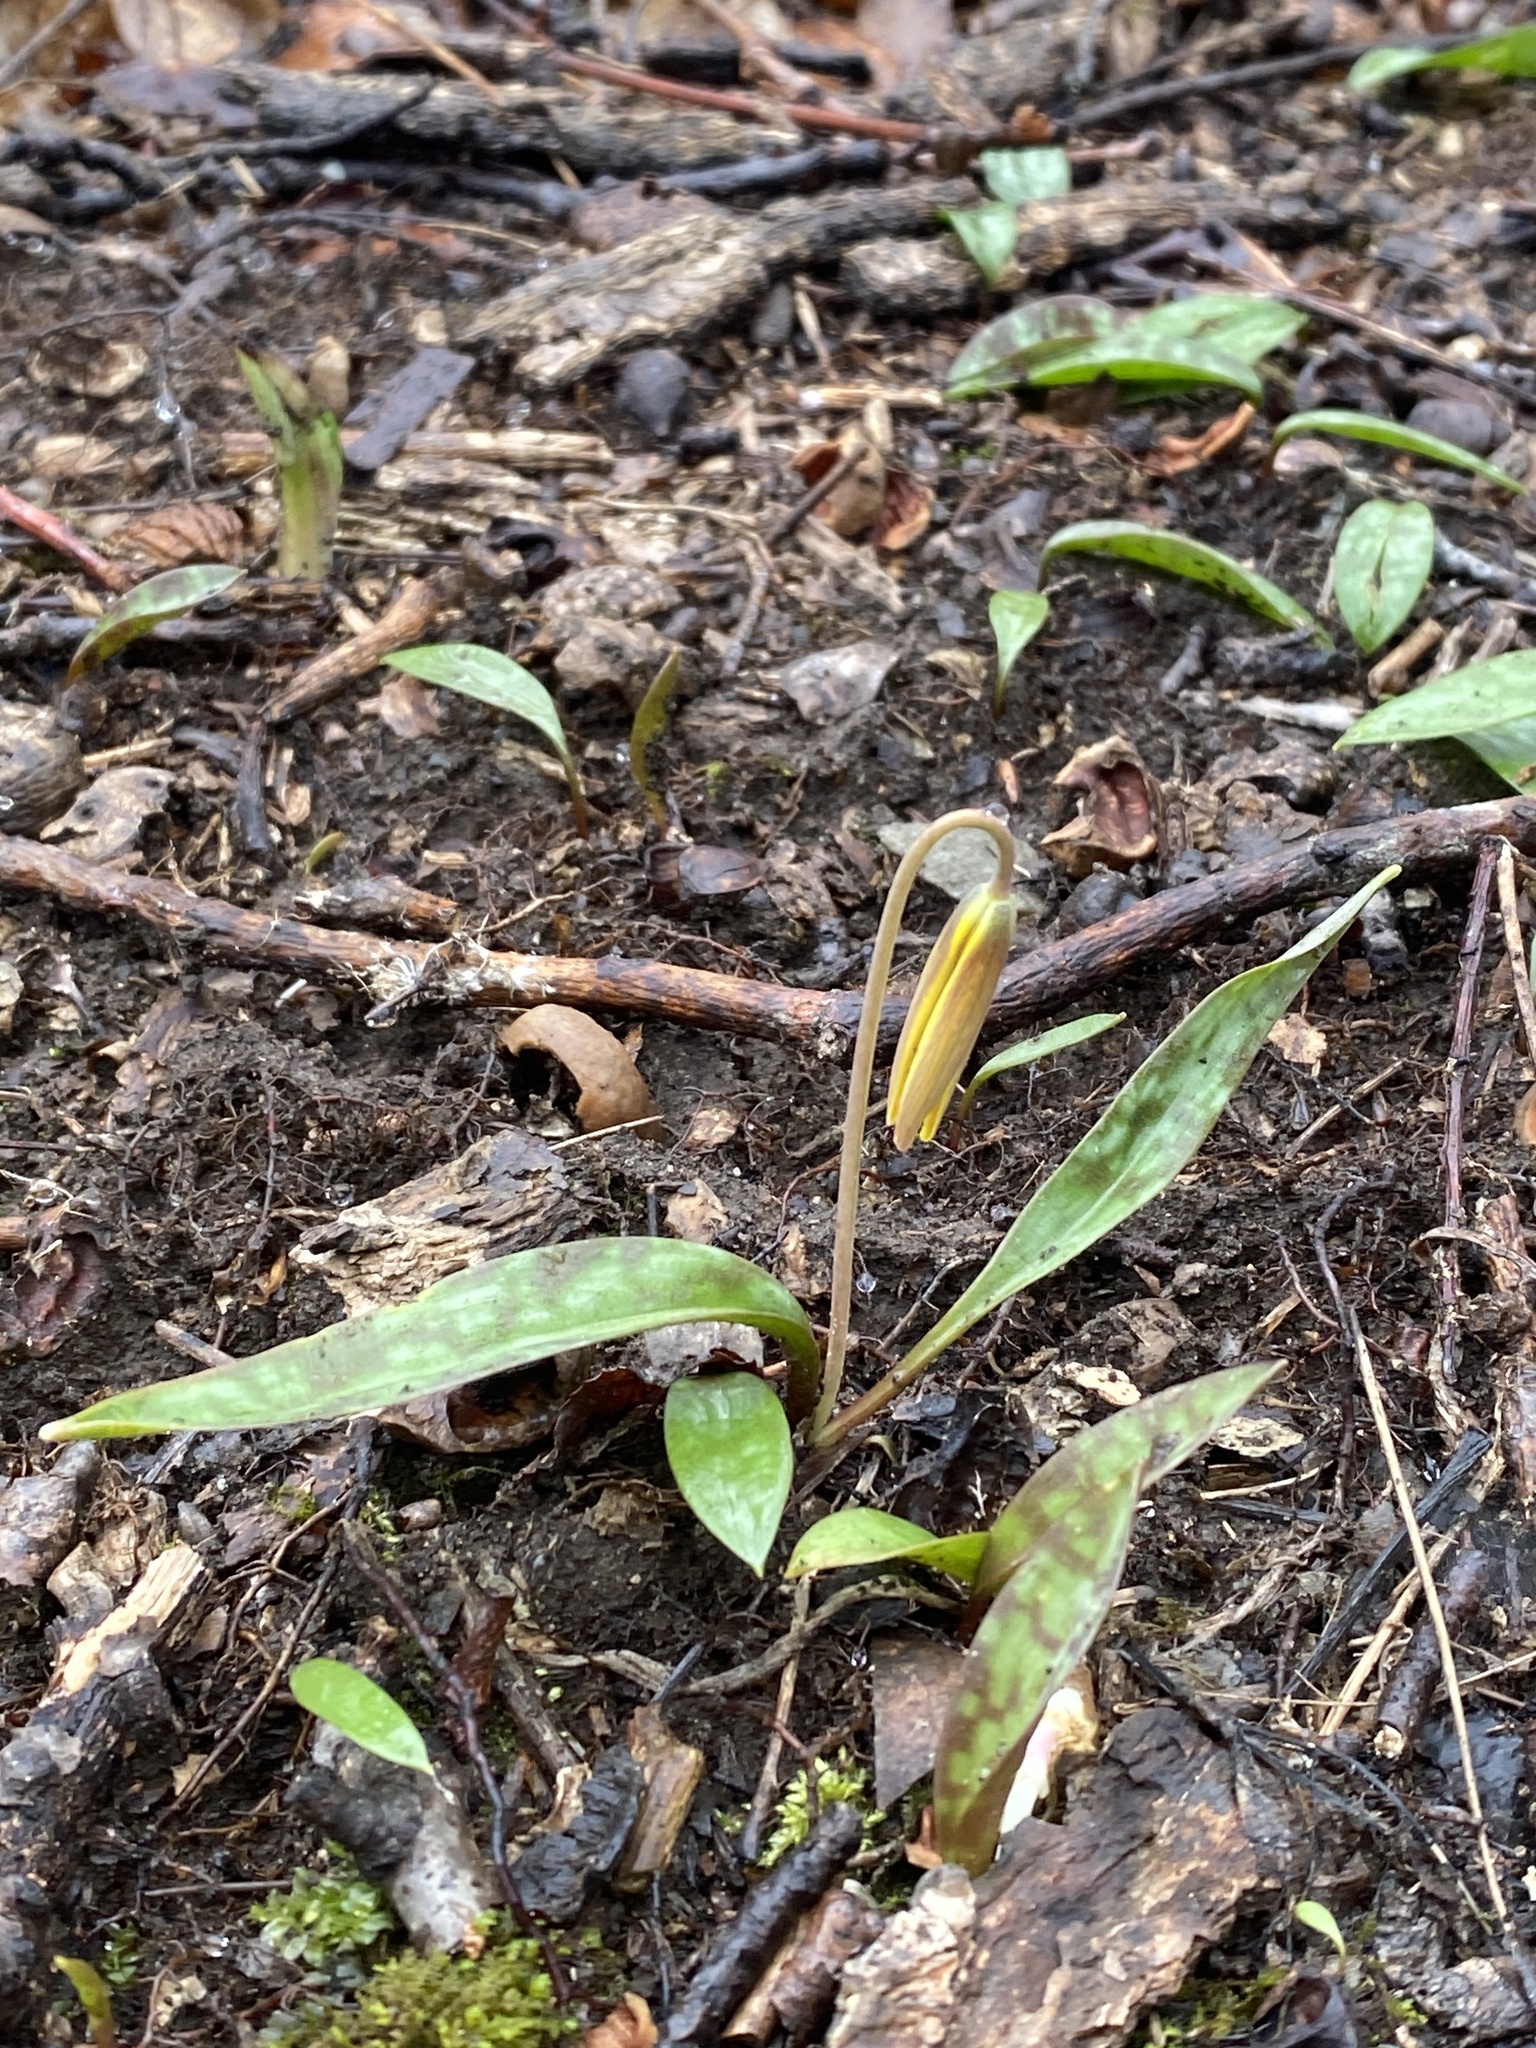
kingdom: Plantae
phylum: Tracheophyta
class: Liliopsida
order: Liliales
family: Liliaceae
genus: Erythronium
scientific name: Erythronium americanum
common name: Yellow adder's-tongue
